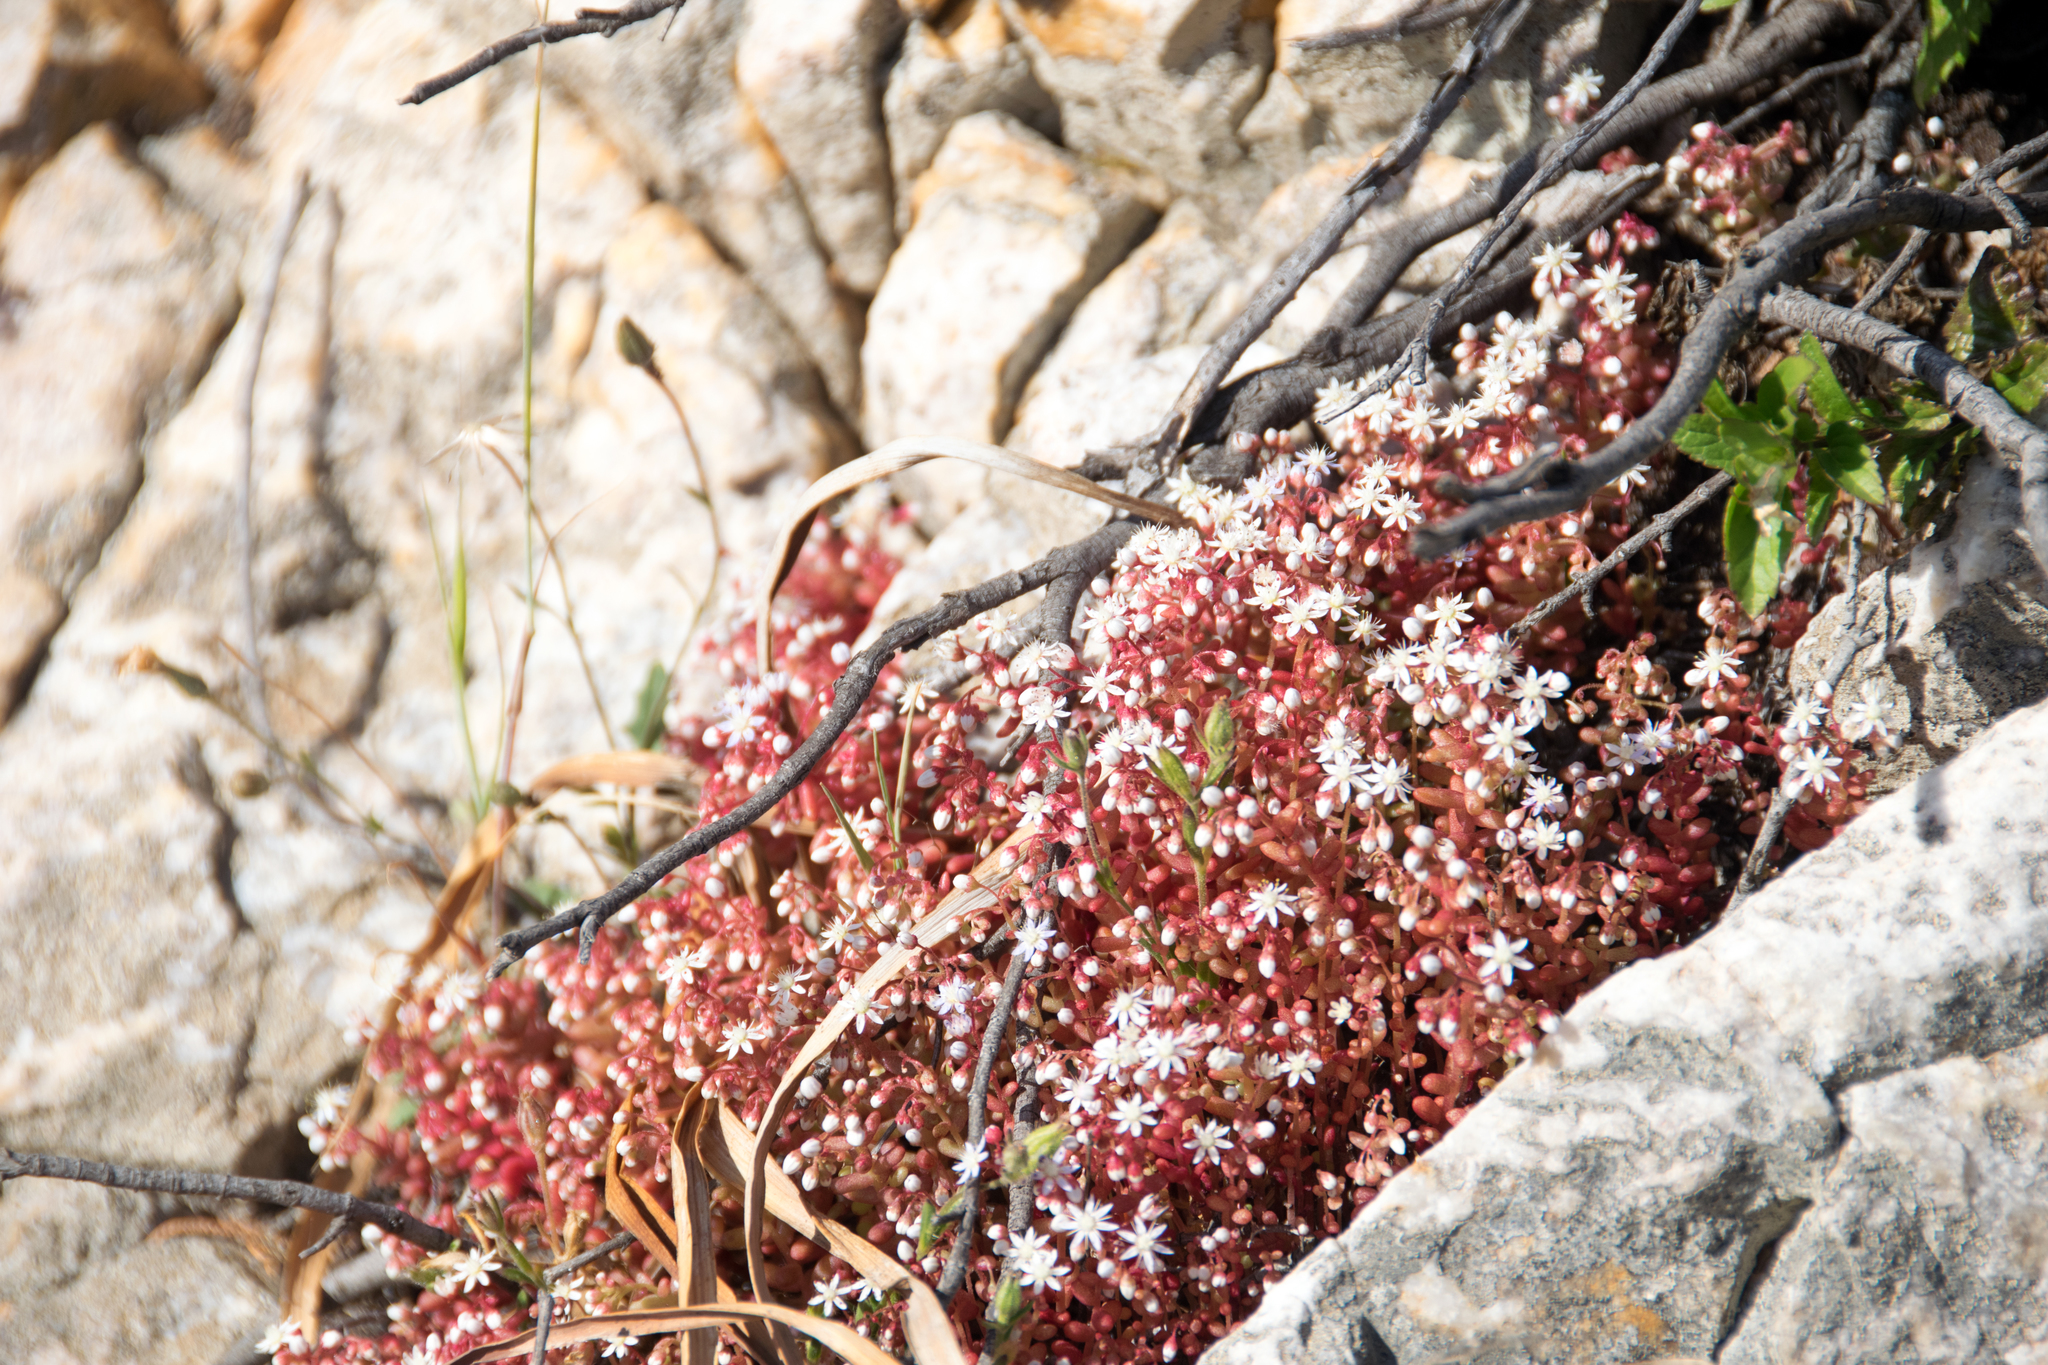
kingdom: Plantae
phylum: Tracheophyta
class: Magnoliopsida
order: Saxifragales
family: Crassulaceae
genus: Sedum
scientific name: Sedum caeruleum
